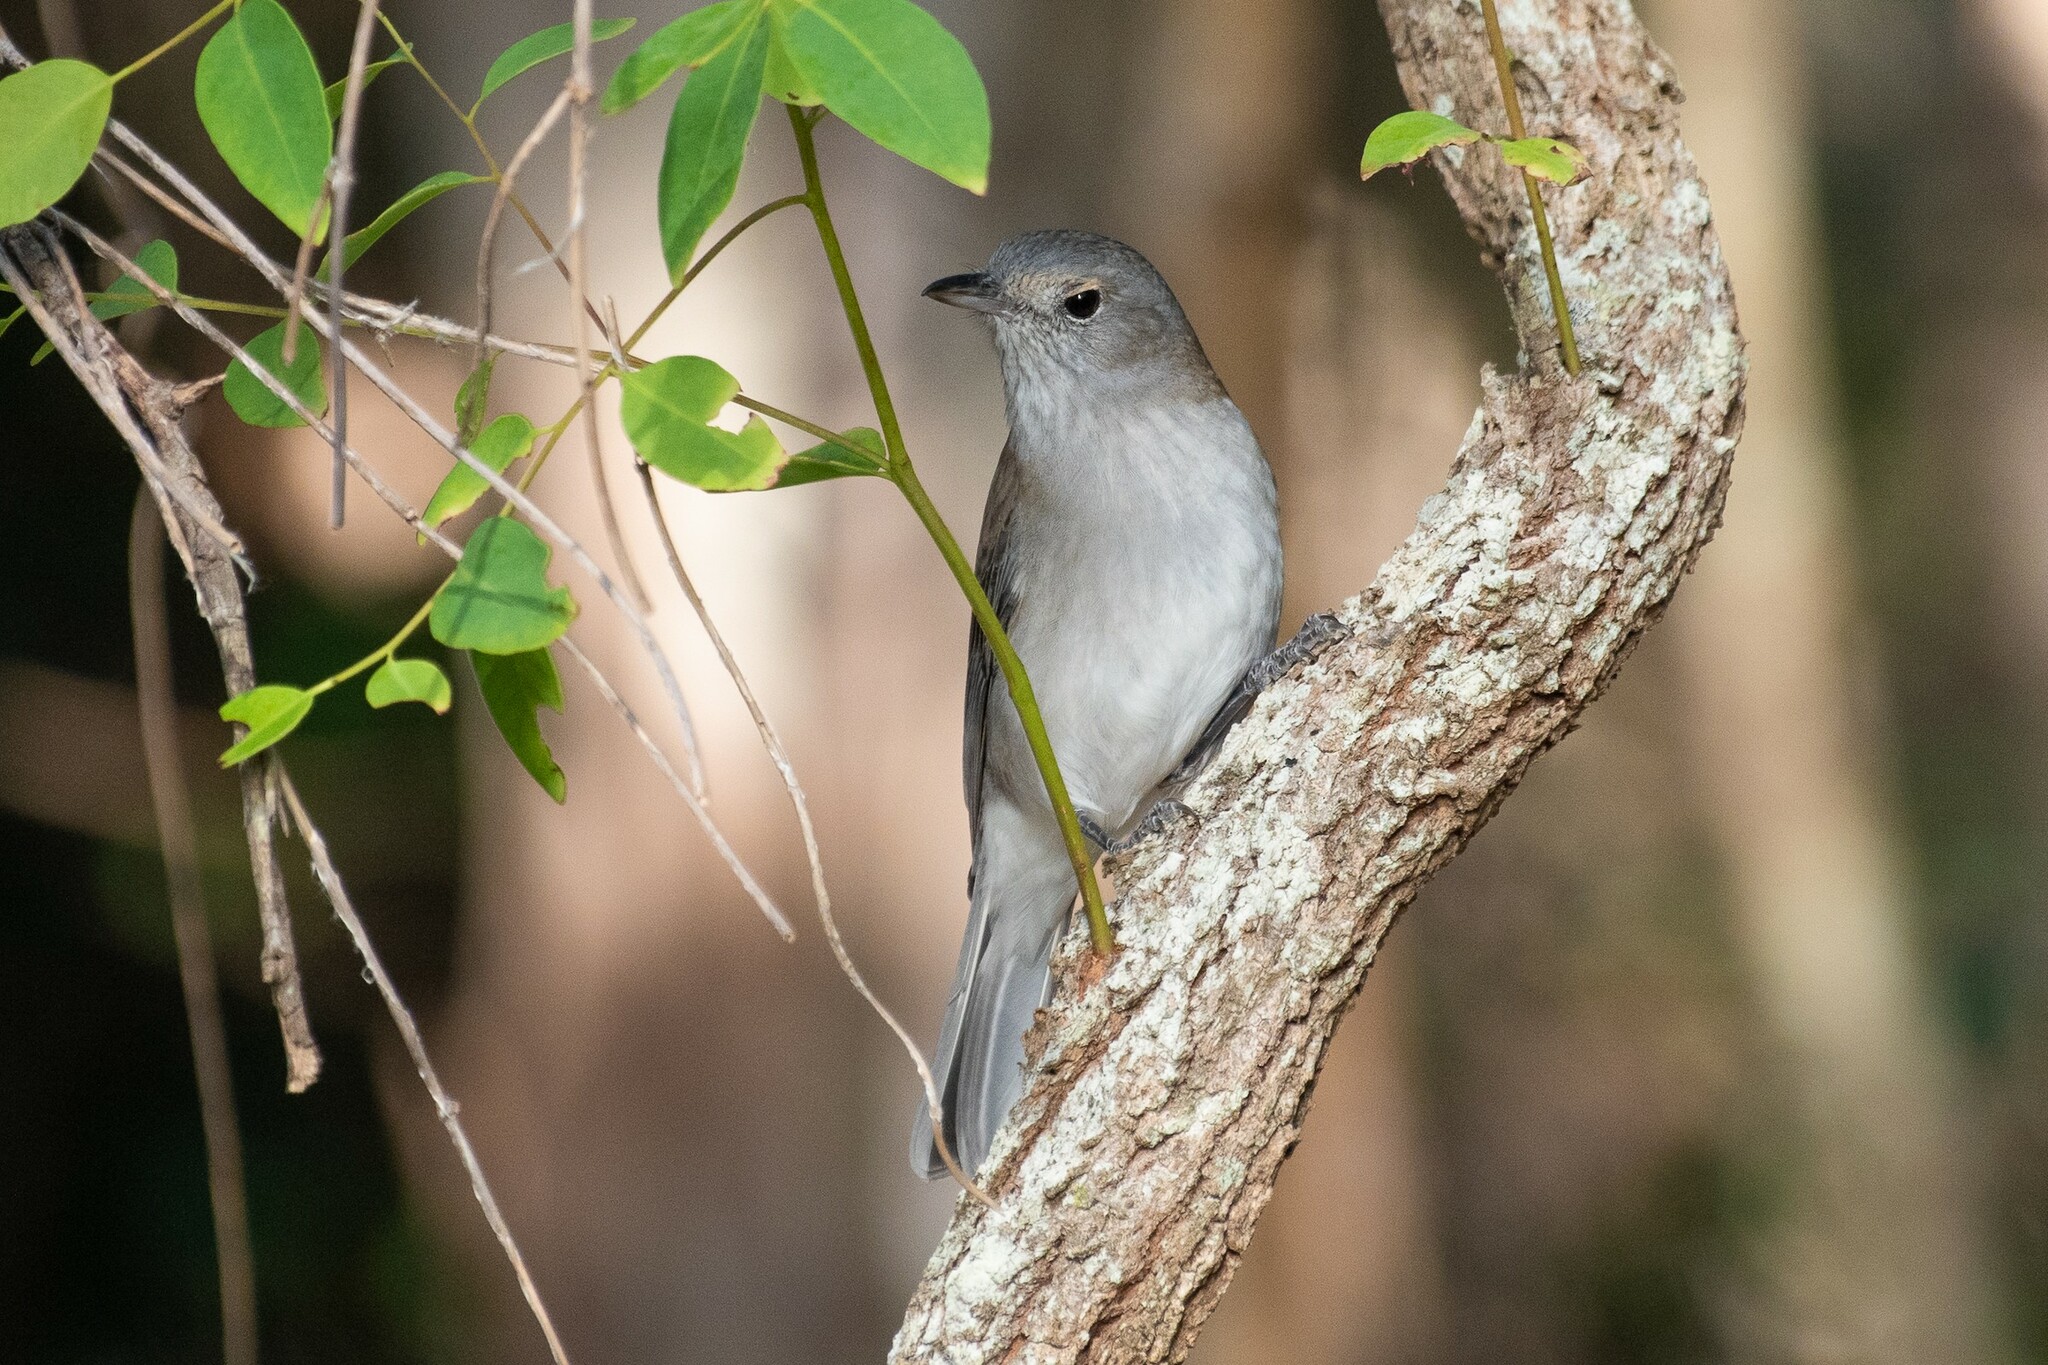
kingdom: Animalia
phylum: Chordata
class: Aves
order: Passeriformes
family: Pachycephalidae
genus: Colluricincla
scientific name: Colluricincla harmonica
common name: Grey shrikethrush
